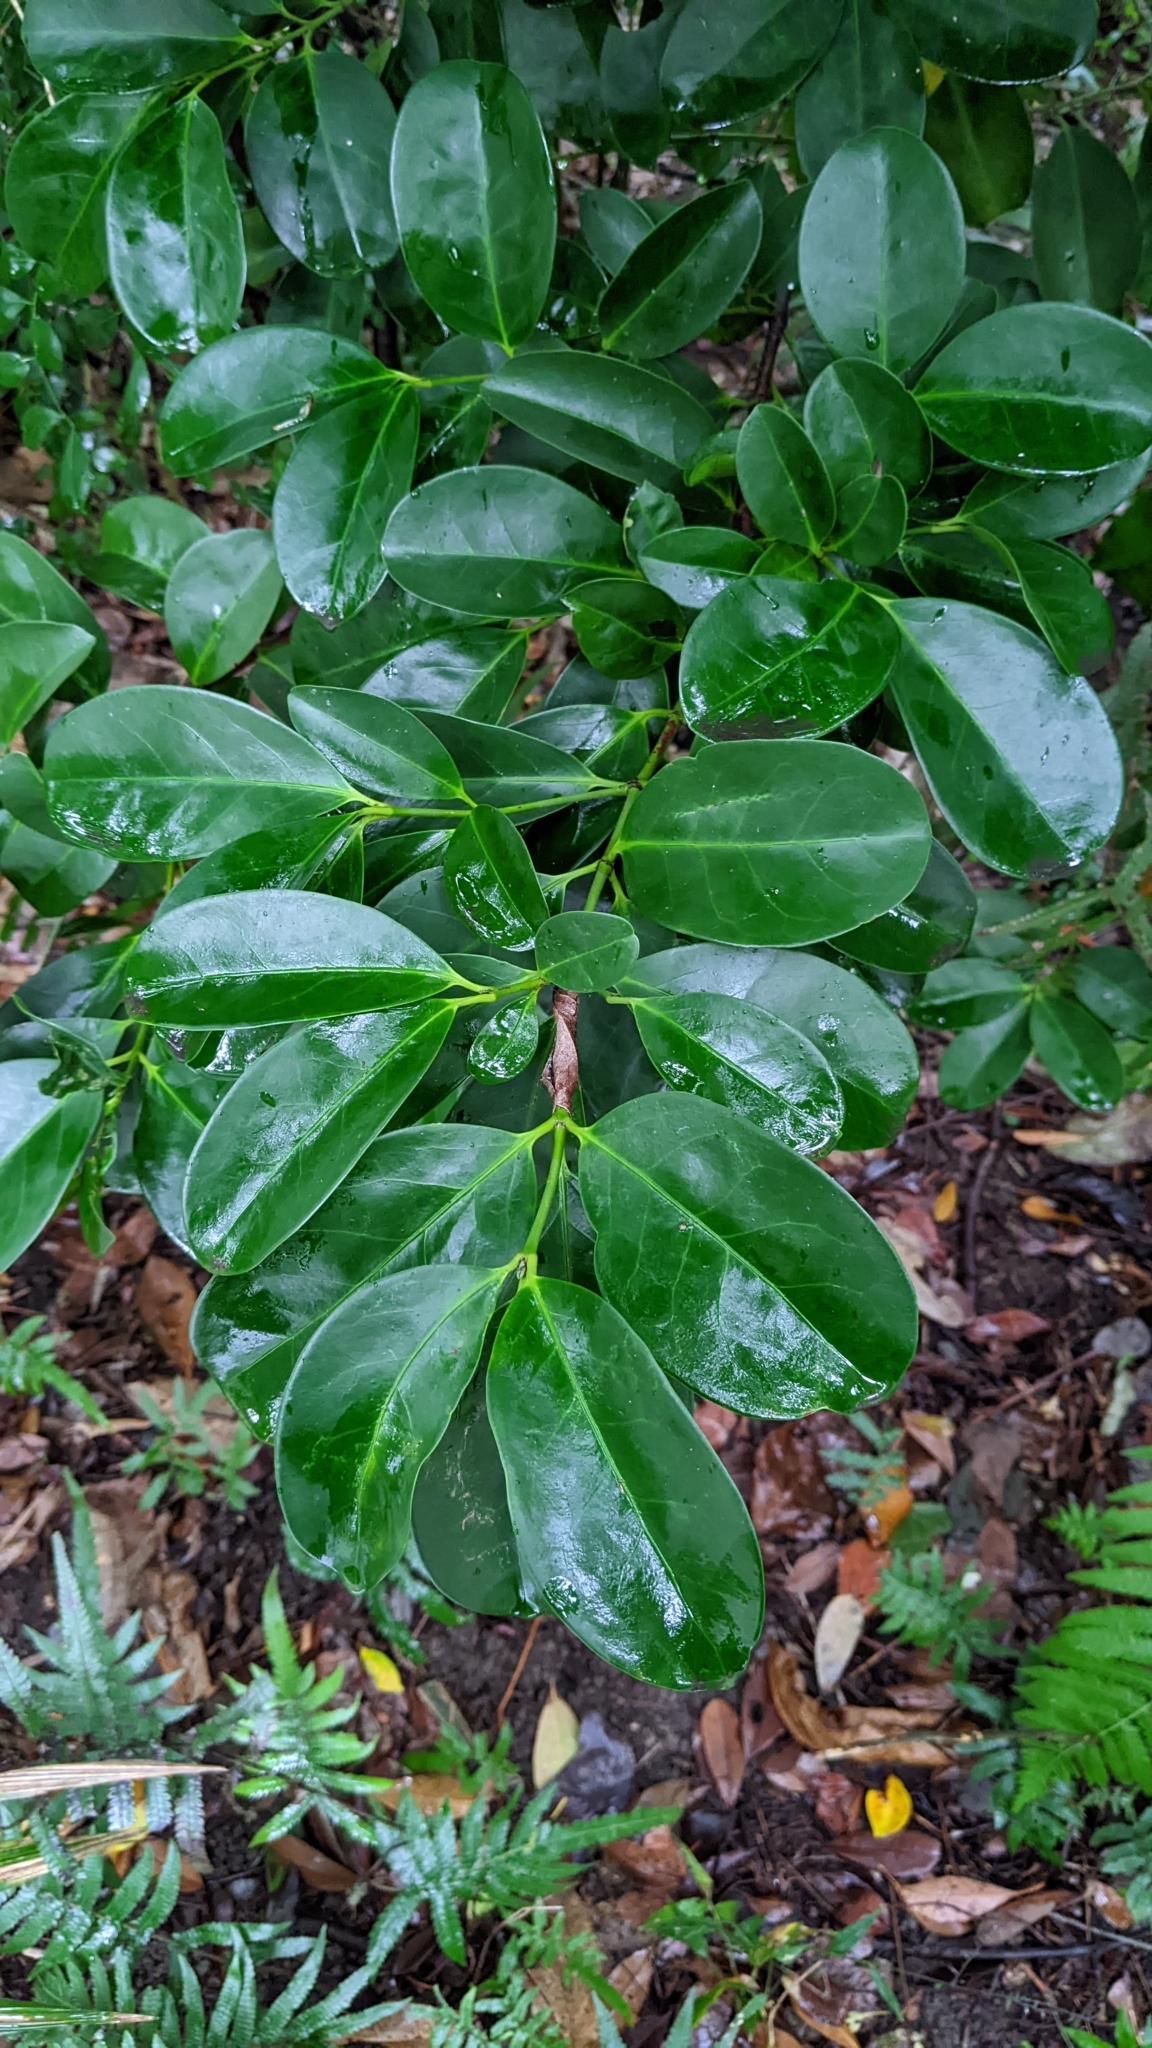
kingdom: Plantae
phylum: Tracheophyta
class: Magnoliopsida
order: Celastrales
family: Celastraceae
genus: Euonymus
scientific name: Euonymus pallidifolius
